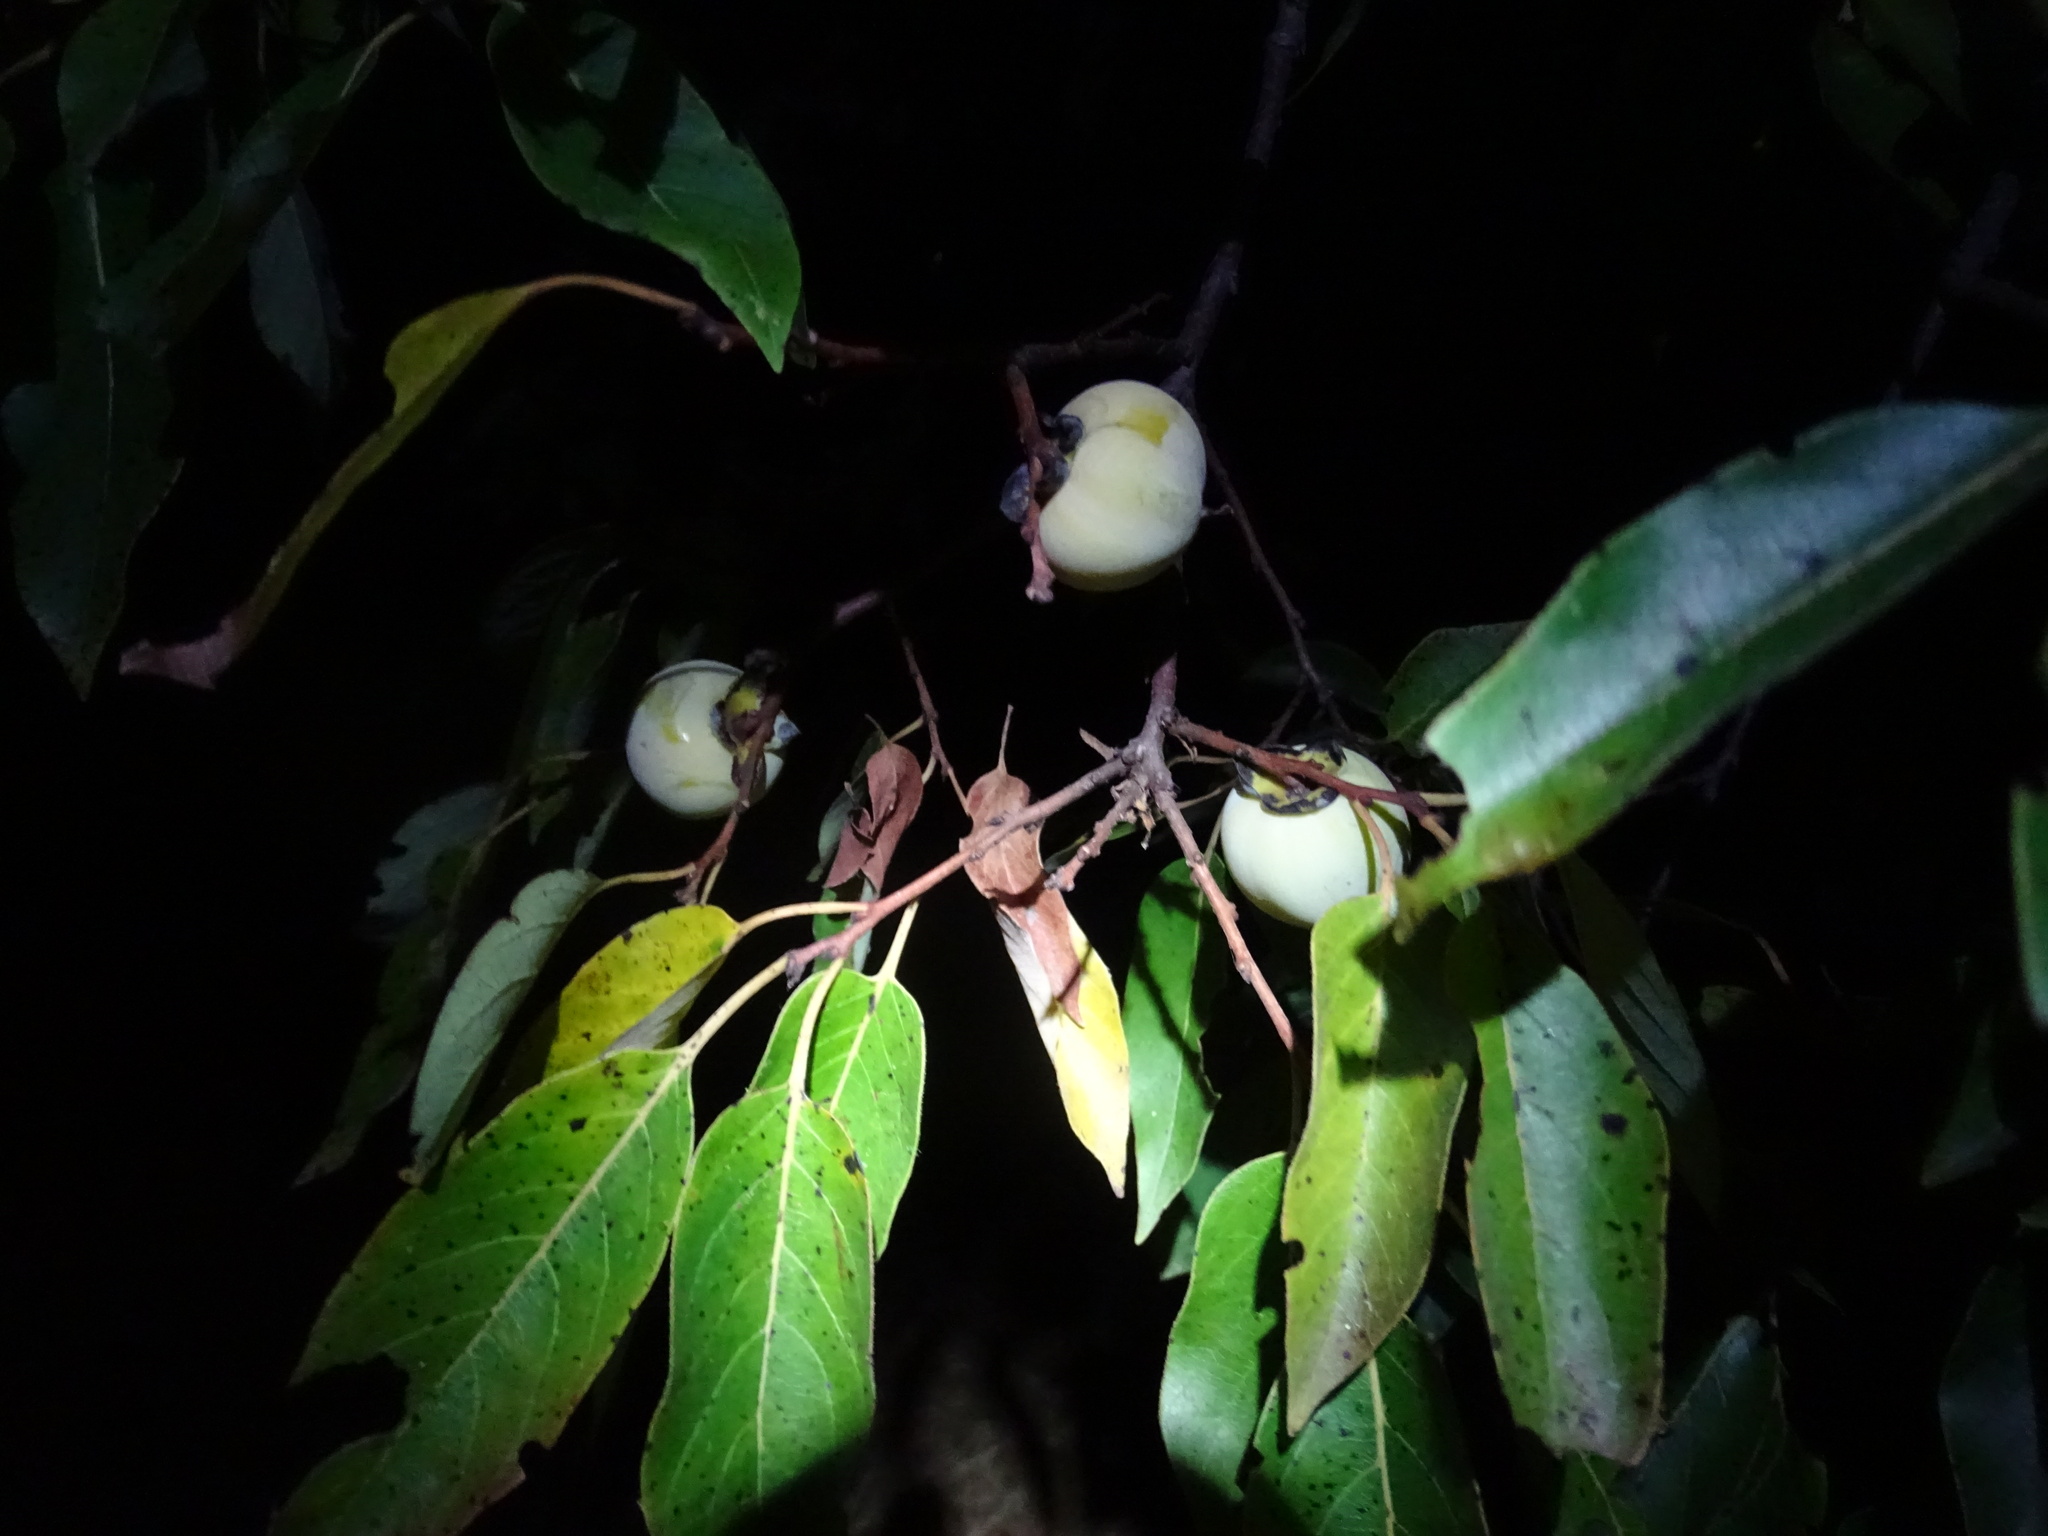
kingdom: Plantae
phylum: Tracheophyta
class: Magnoliopsida
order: Ericales
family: Ebenaceae
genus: Diospyros
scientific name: Diospyros virginiana
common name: Persimmon
